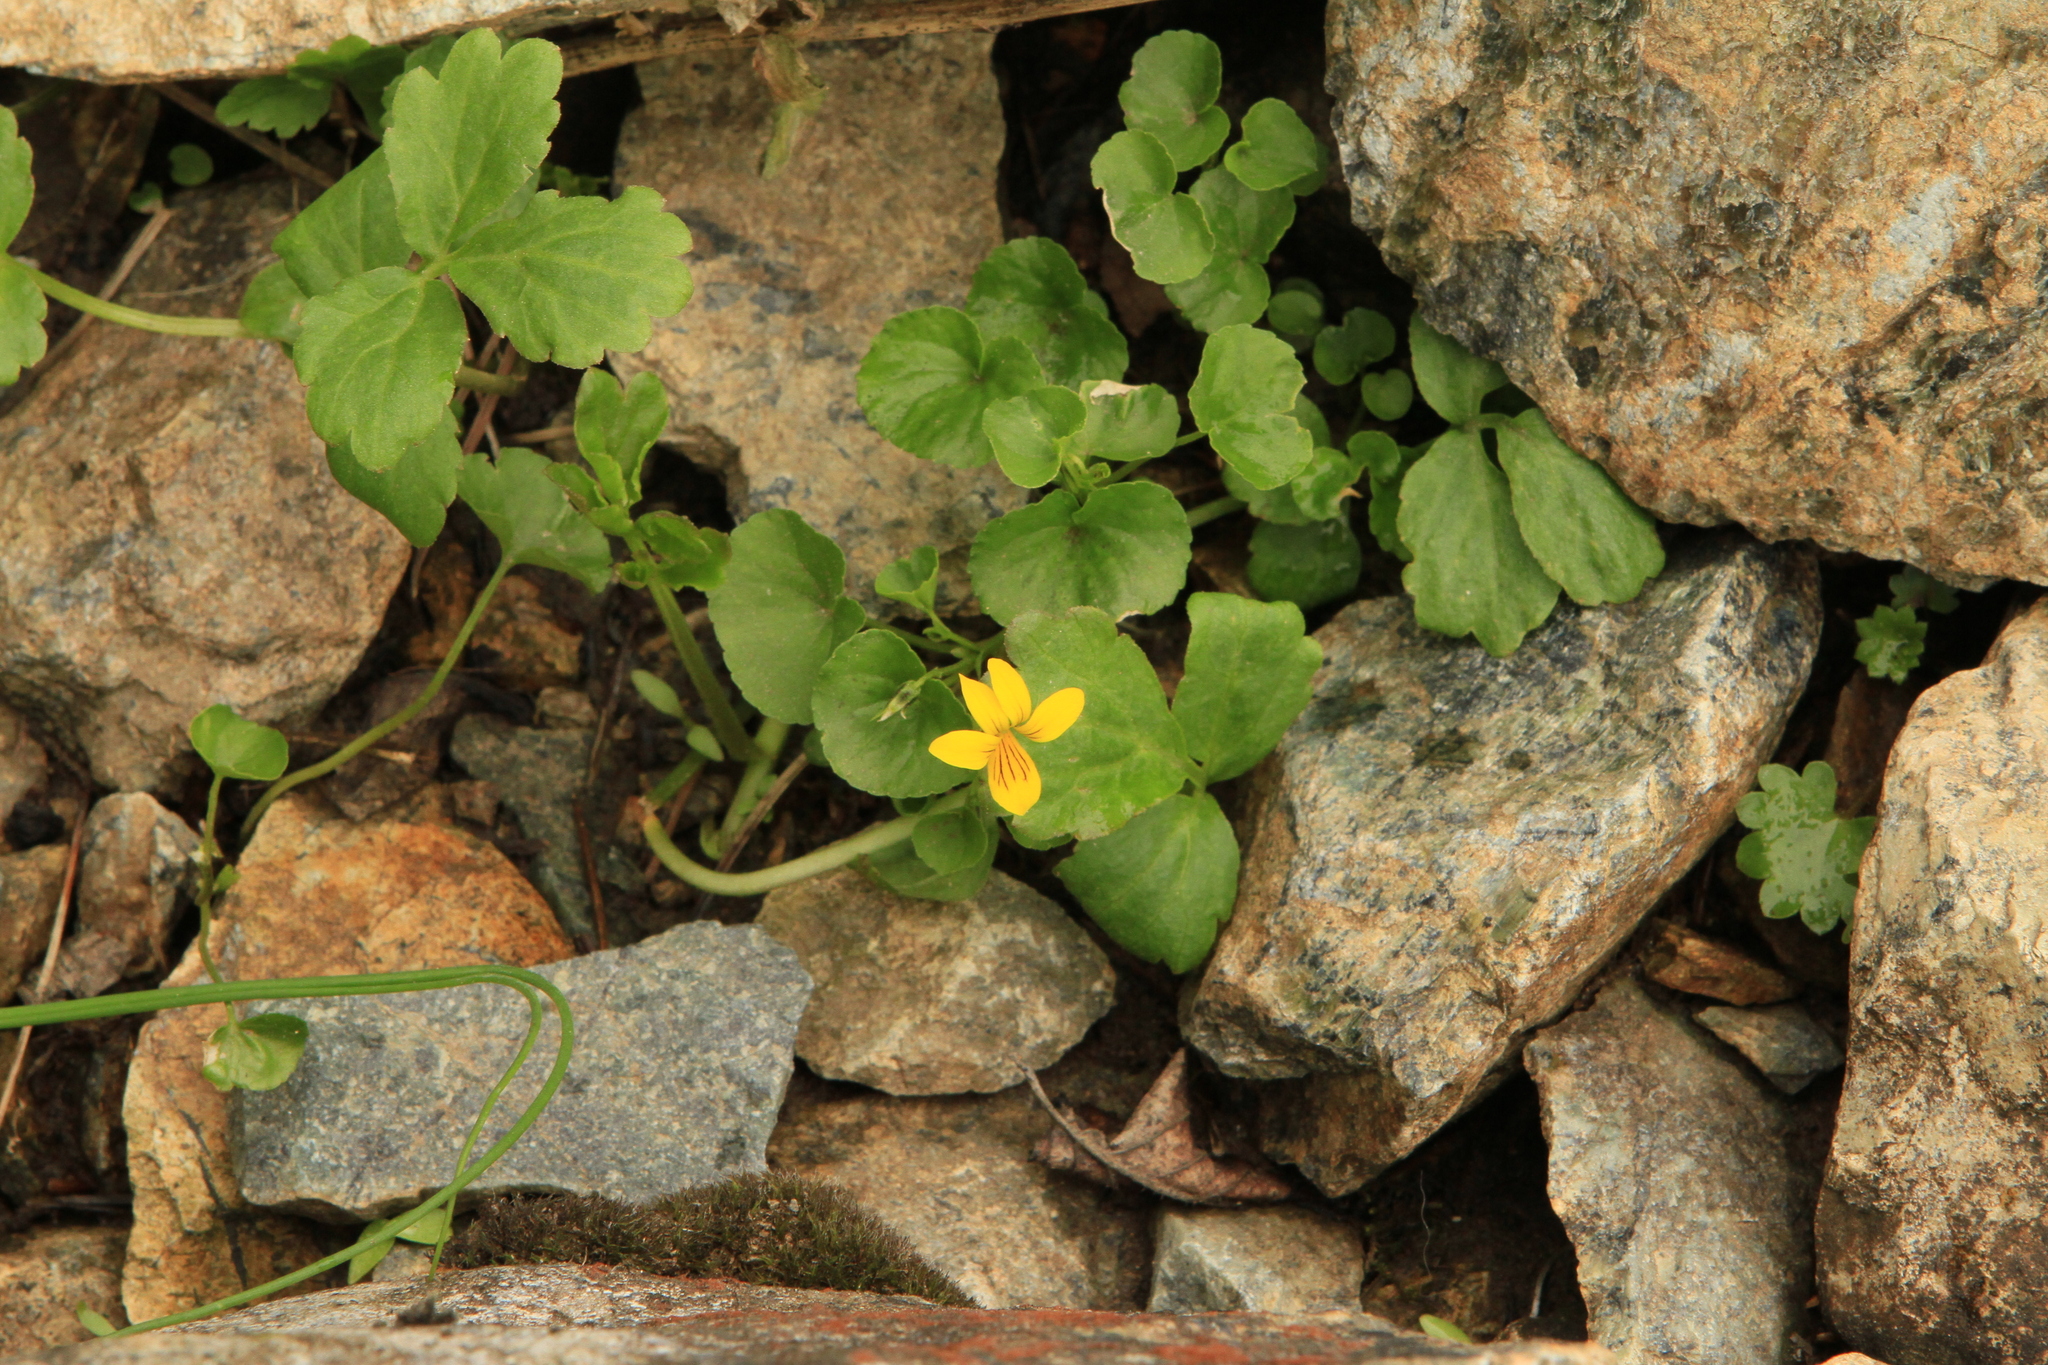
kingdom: Plantae
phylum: Tracheophyta
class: Magnoliopsida
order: Malpighiales
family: Violaceae
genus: Viola
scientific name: Viola biflora
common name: Alpine yellow violet
